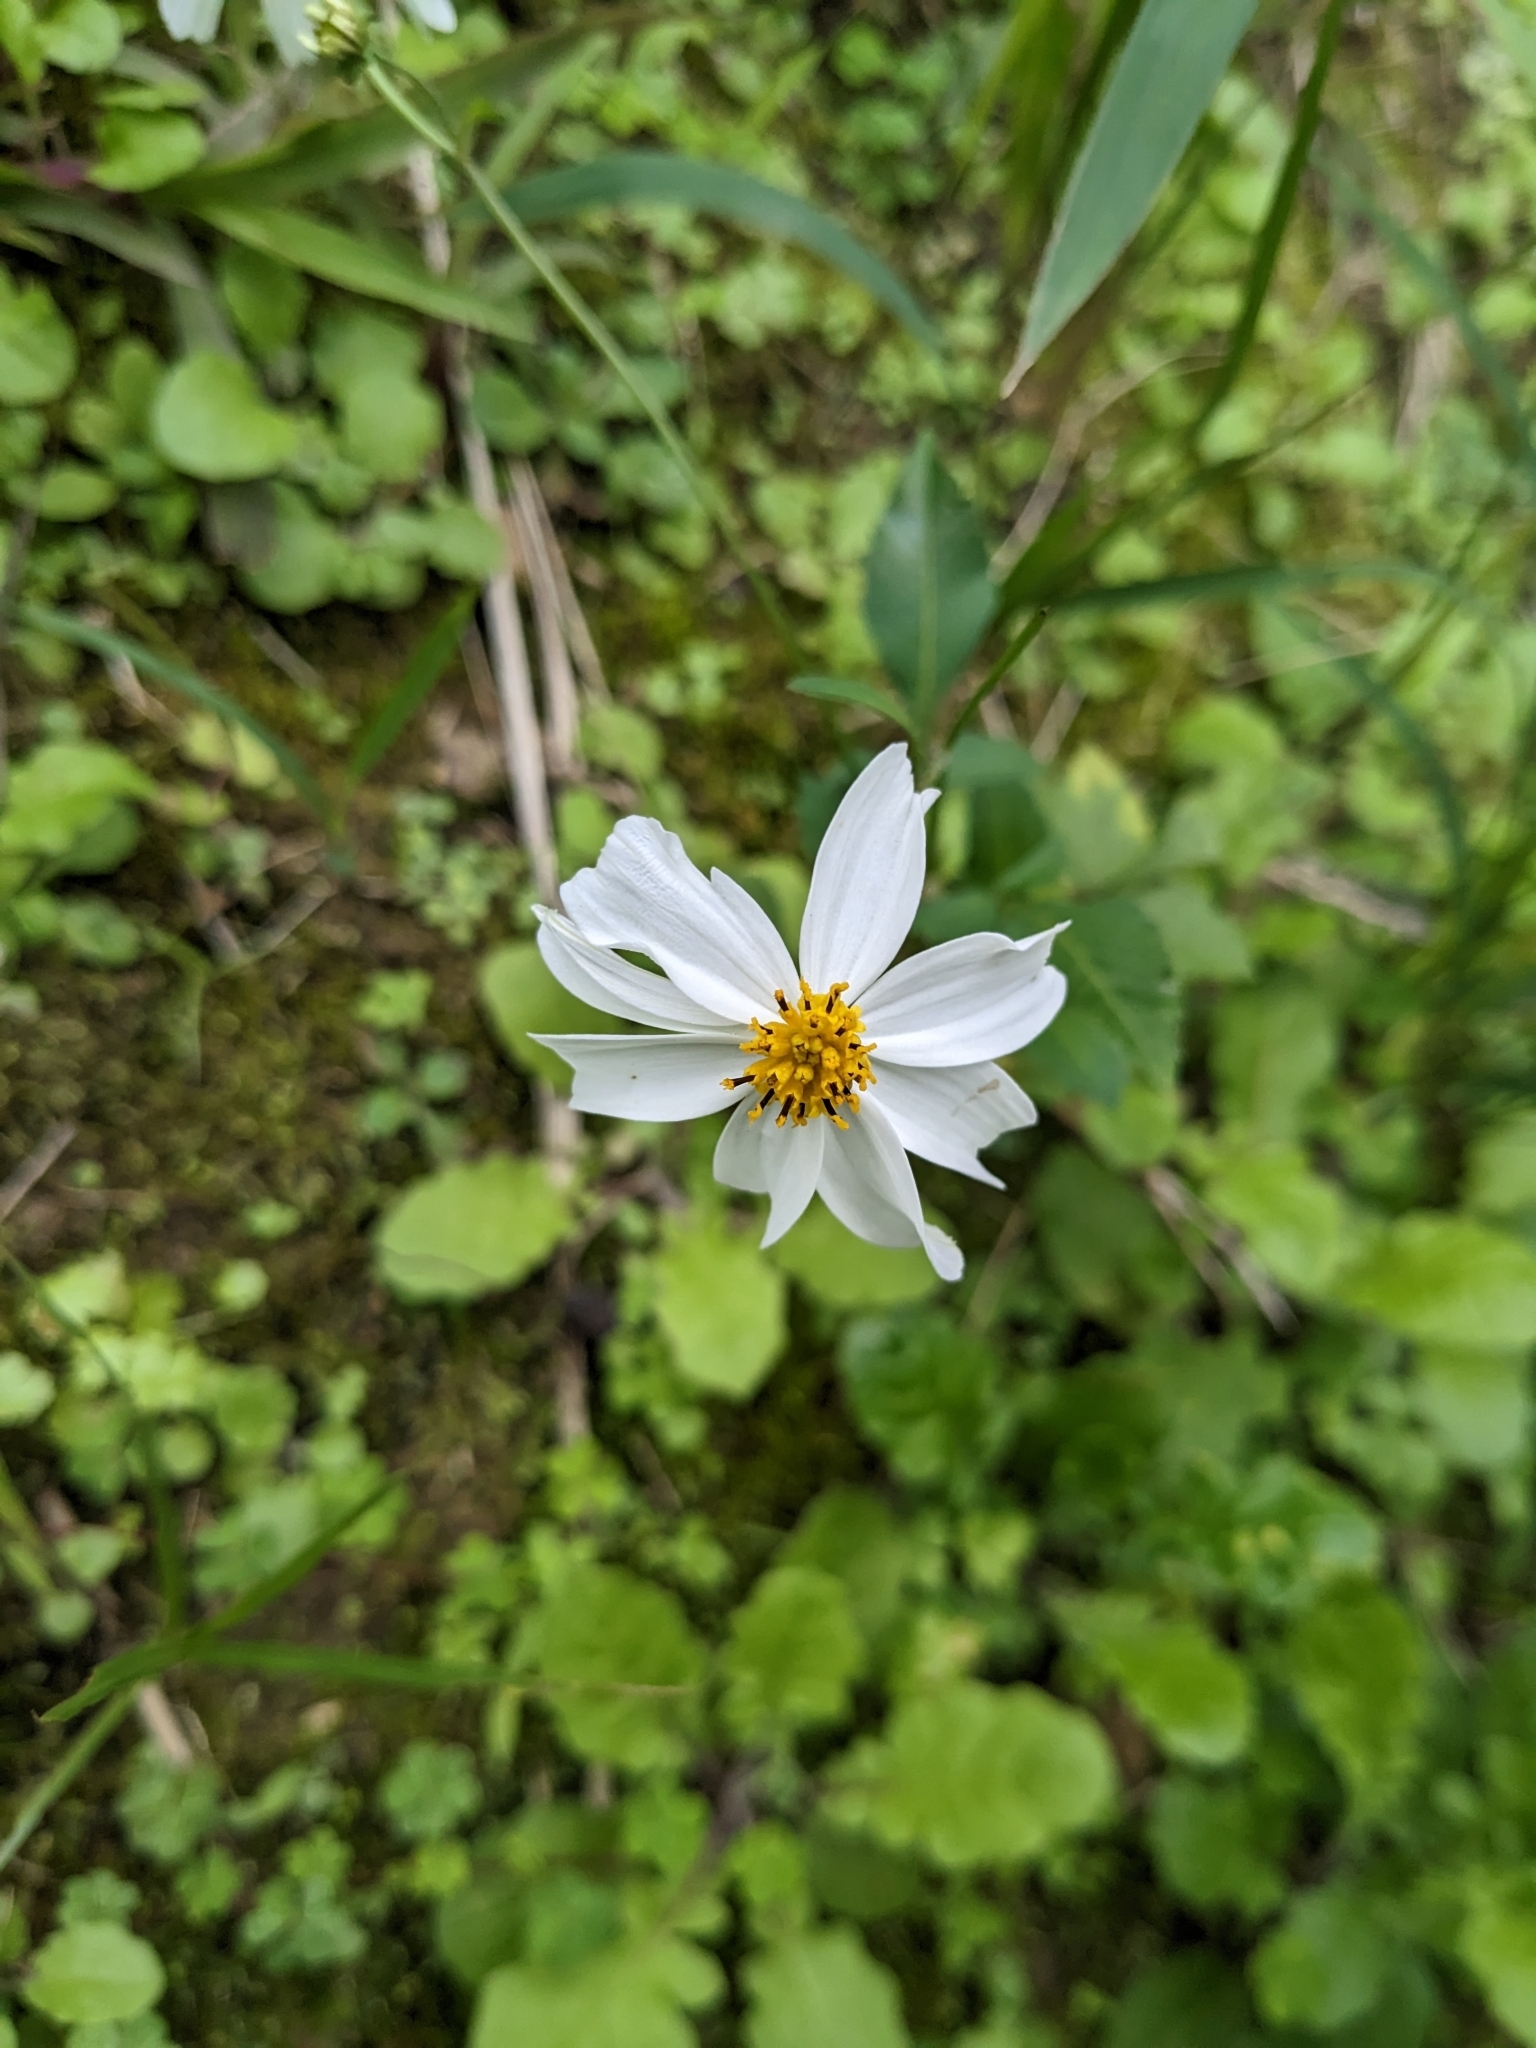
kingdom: Plantae
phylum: Tracheophyta
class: Magnoliopsida
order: Asterales
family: Asteraceae
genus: Bidens
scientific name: Bidens alba
